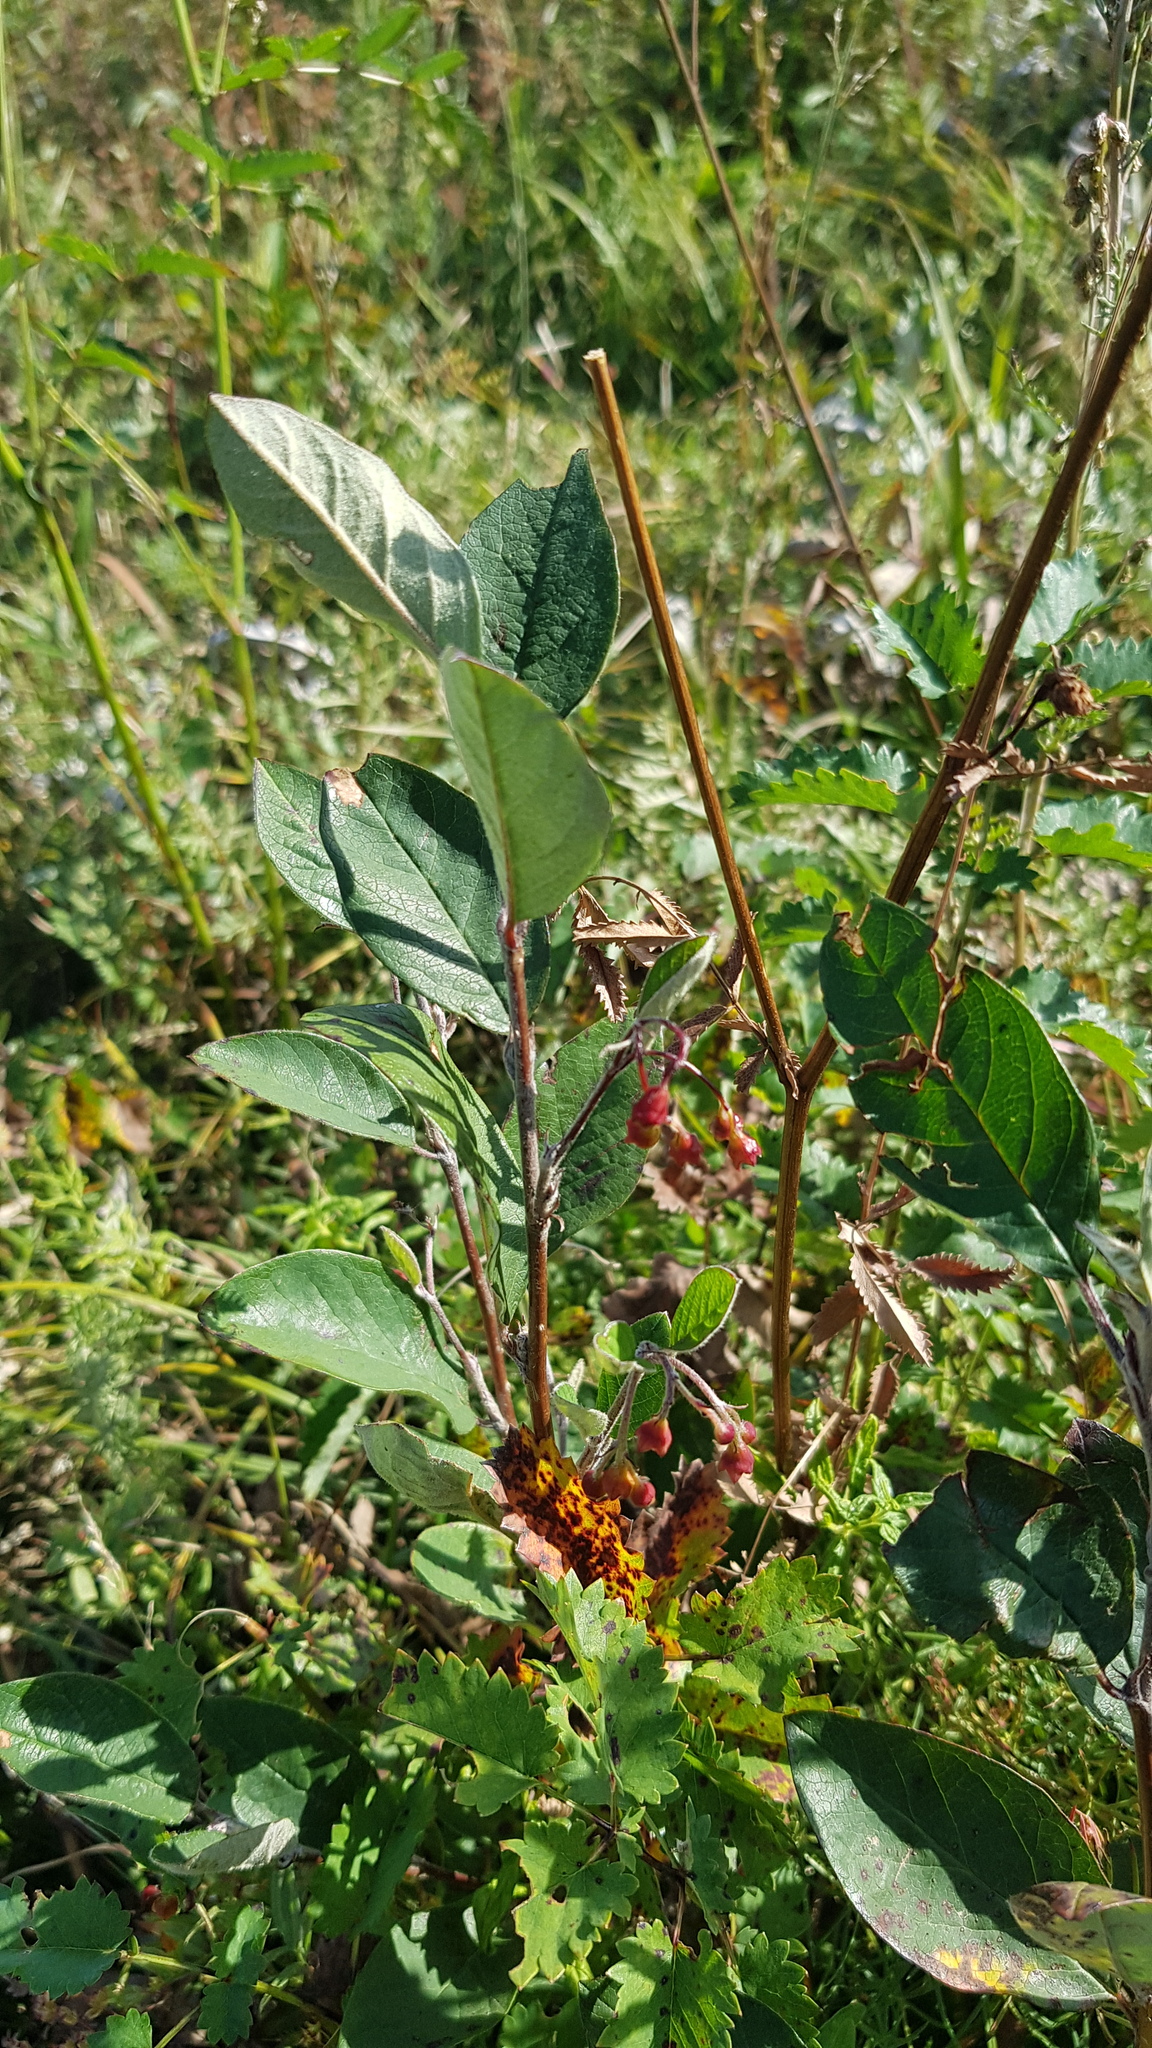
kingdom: Plantae
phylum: Tracheophyta
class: Magnoliopsida
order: Rosales
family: Rosaceae
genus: Cotoneaster
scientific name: Cotoneaster mongolicus
